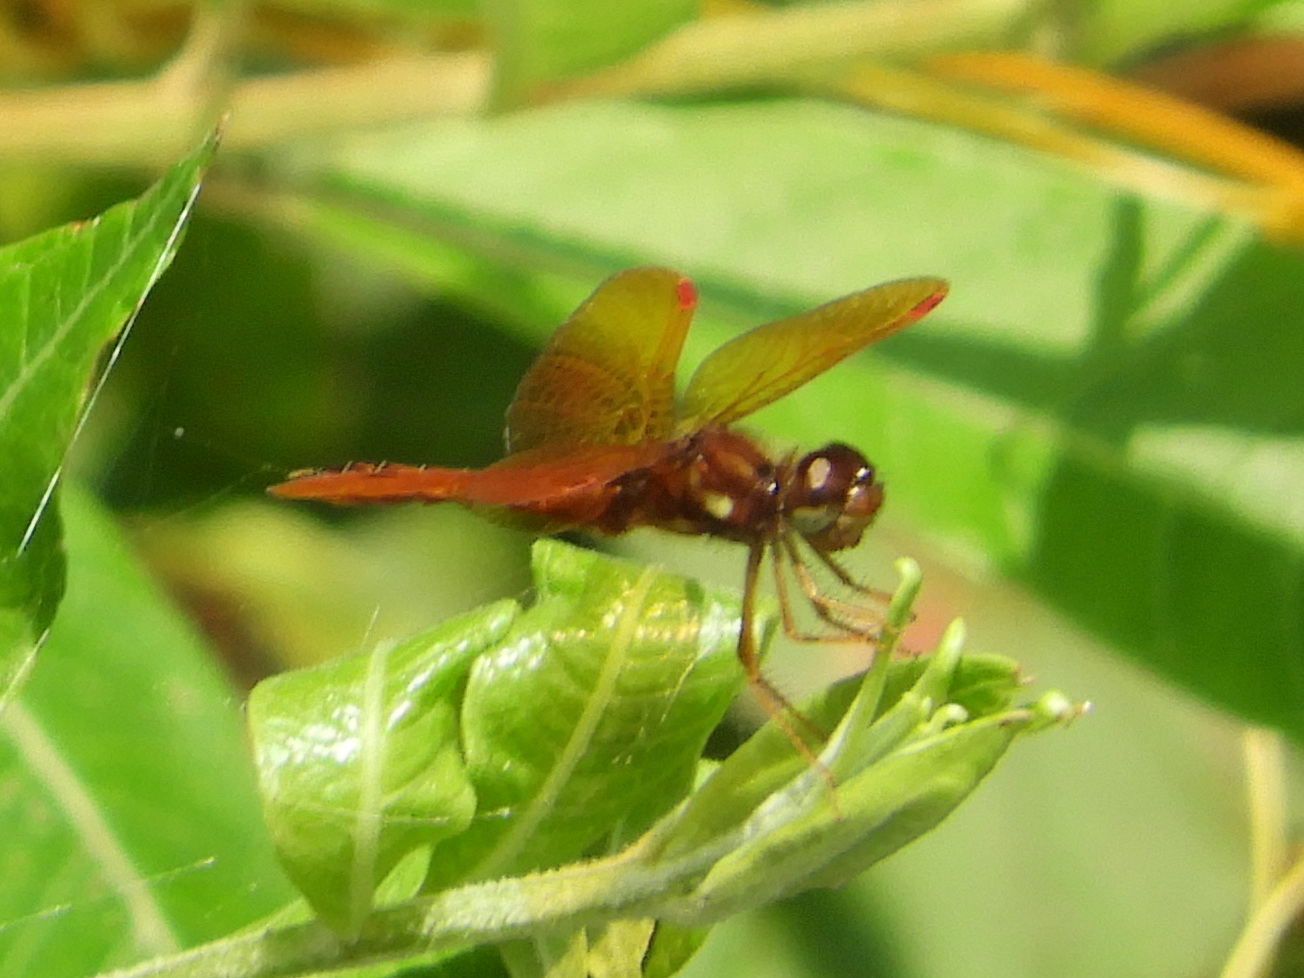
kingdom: Animalia
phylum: Arthropoda
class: Insecta
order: Odonata
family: Libellulidae
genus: Perithemis
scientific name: Perithemis tenera
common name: Eastern amberwing
